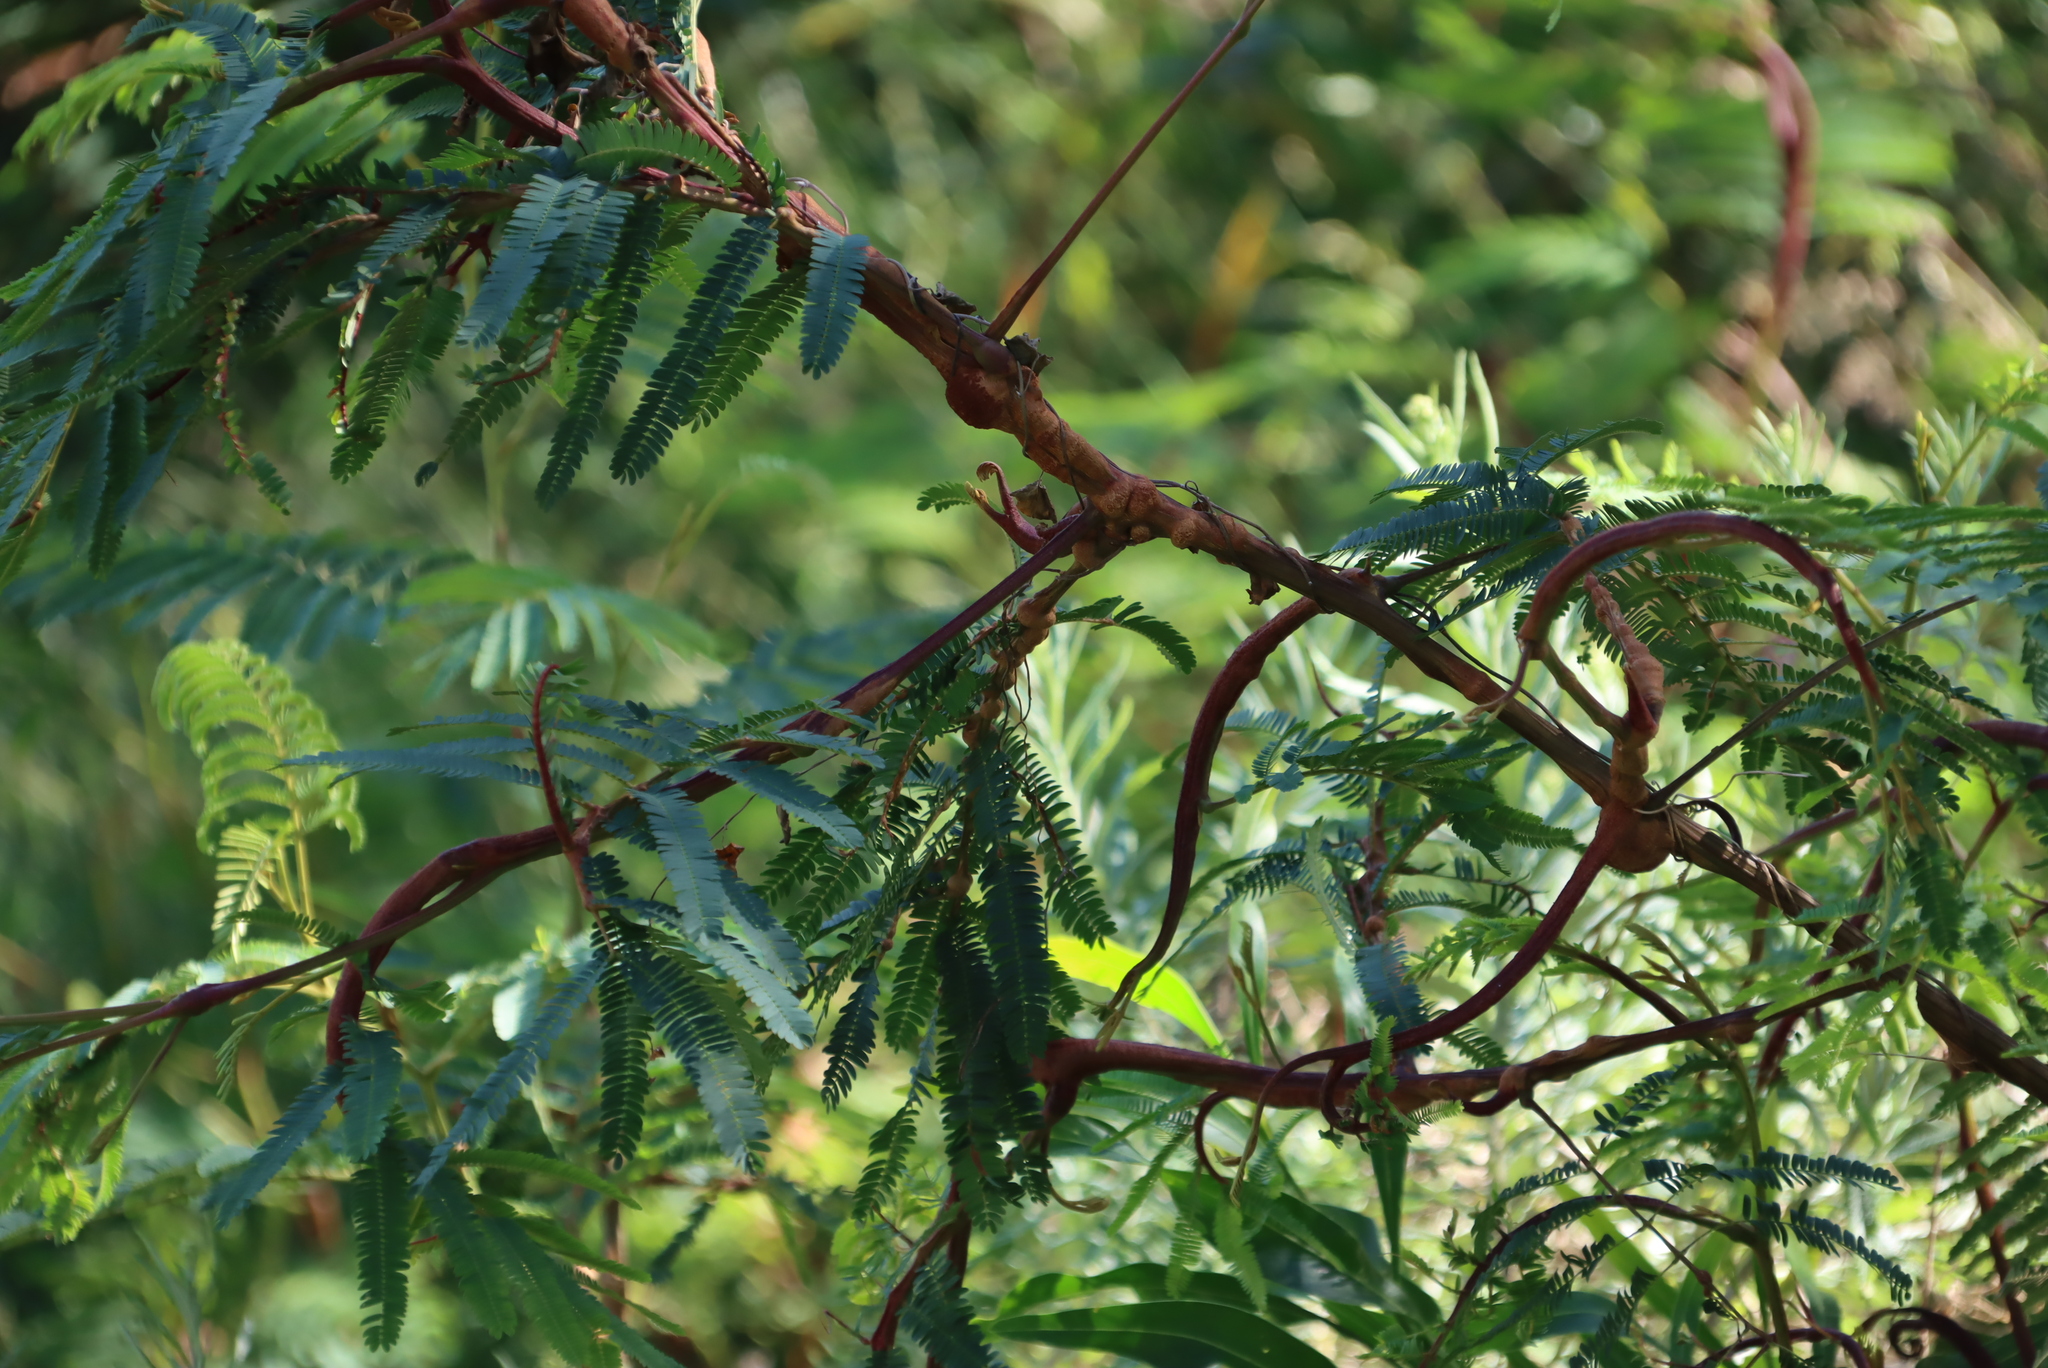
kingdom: Fungi
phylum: Basidiomycota
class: Pucciniomycetes
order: Pucciniales
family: Uromycladiaceae
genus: Uromycladium
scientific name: Uromycladium woodii
